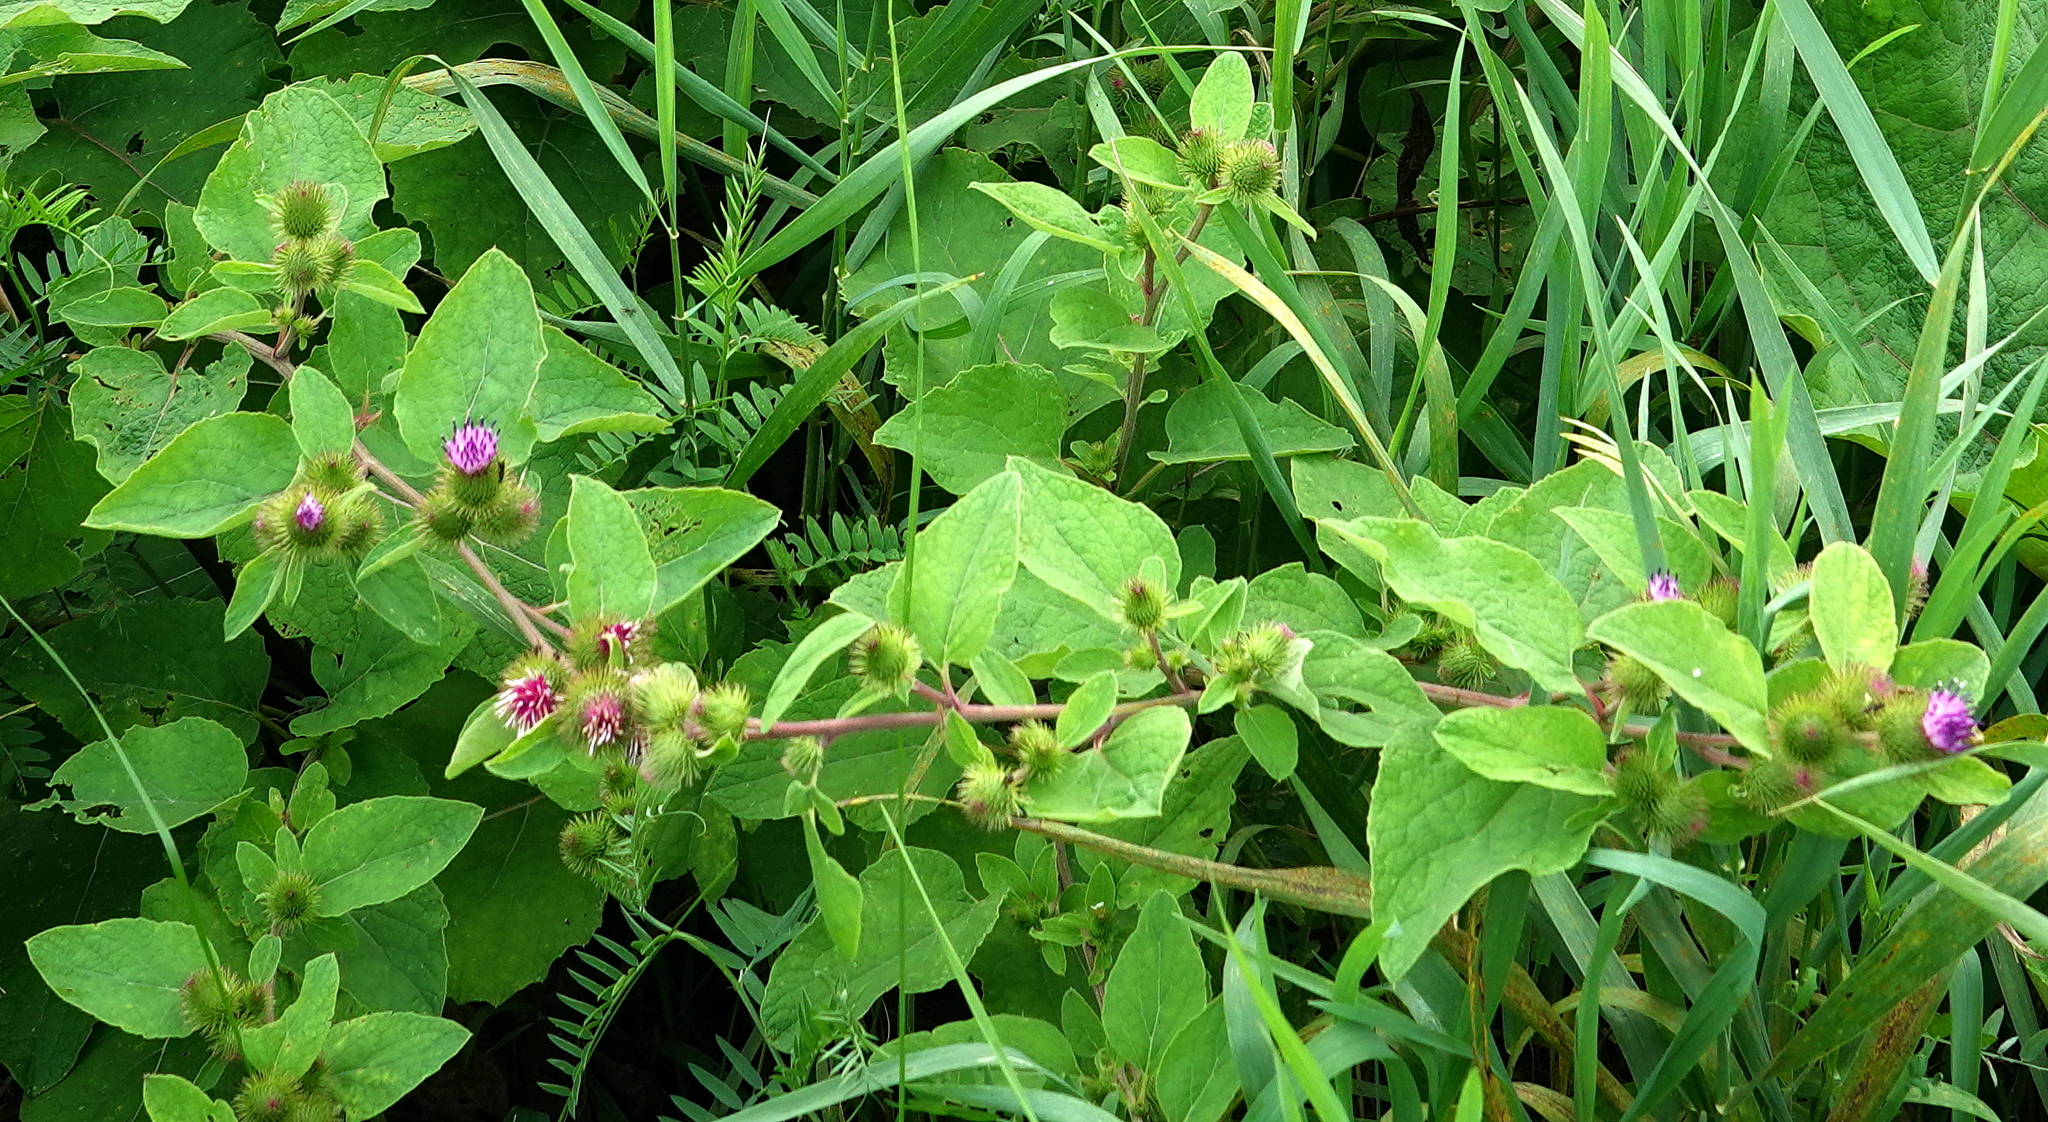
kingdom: Plantae
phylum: Tracheophyta
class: Magnoliopsida
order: Asterales
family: Asteraceae
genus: Arctium
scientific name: Arctium minus
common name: Lesser burdock
